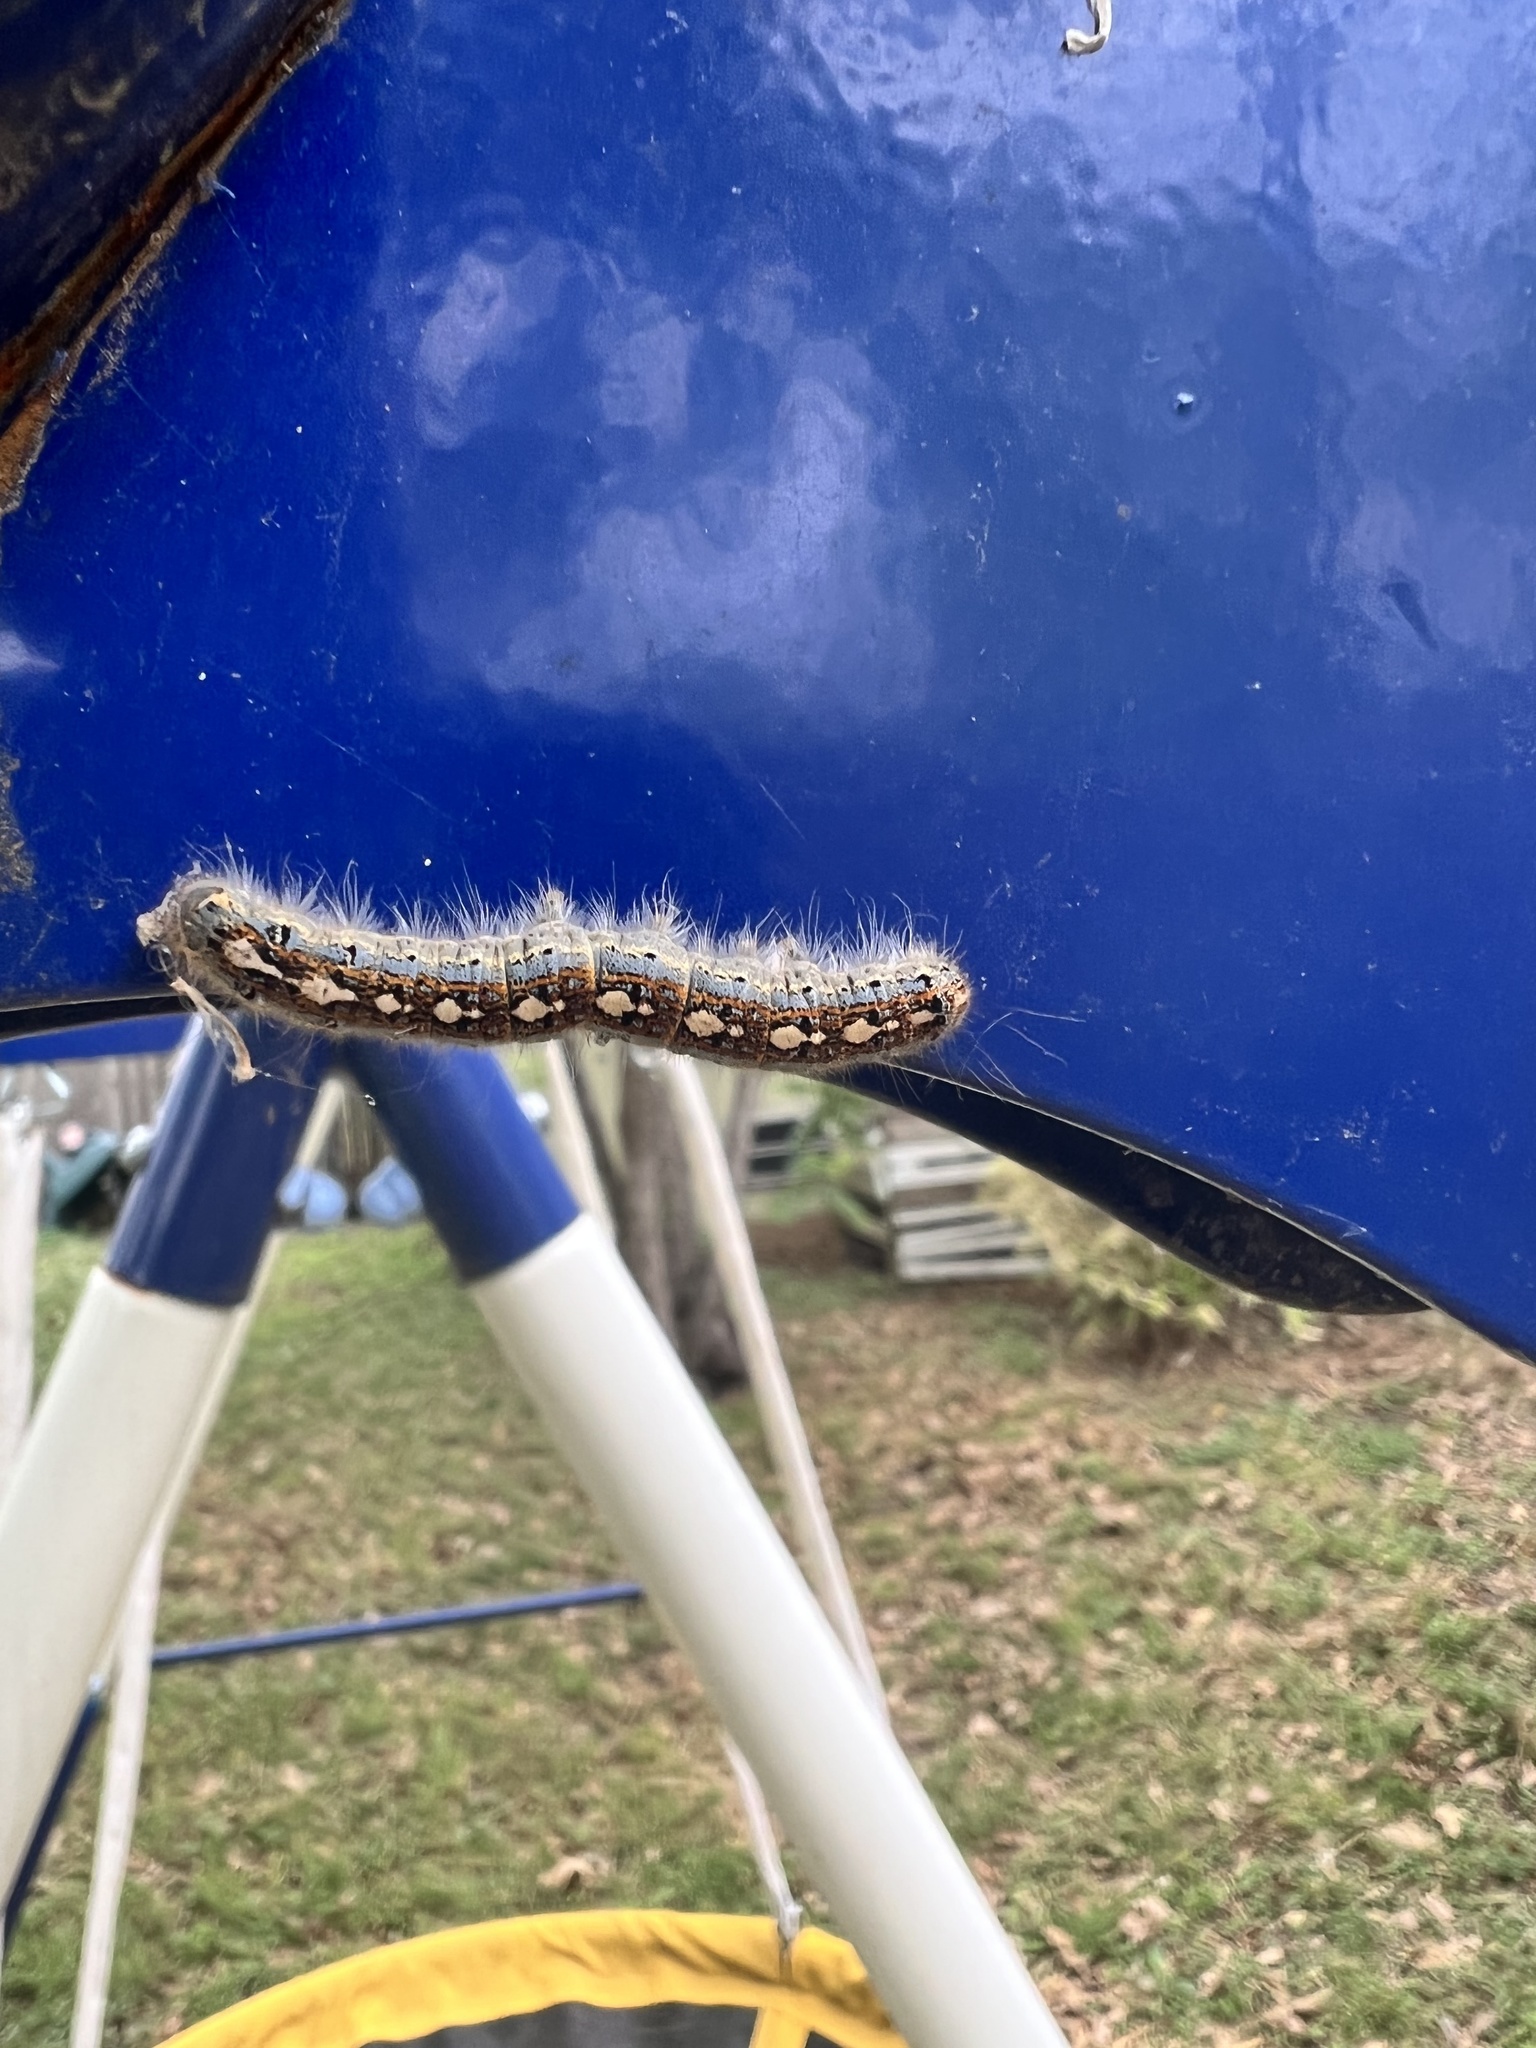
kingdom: Animalia
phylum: Arthropoda
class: Insecta
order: Lepidoptera
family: Lasiocampidae
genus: Malacosoma
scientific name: Malacosoma disstria
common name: Forest tent caterpillar
